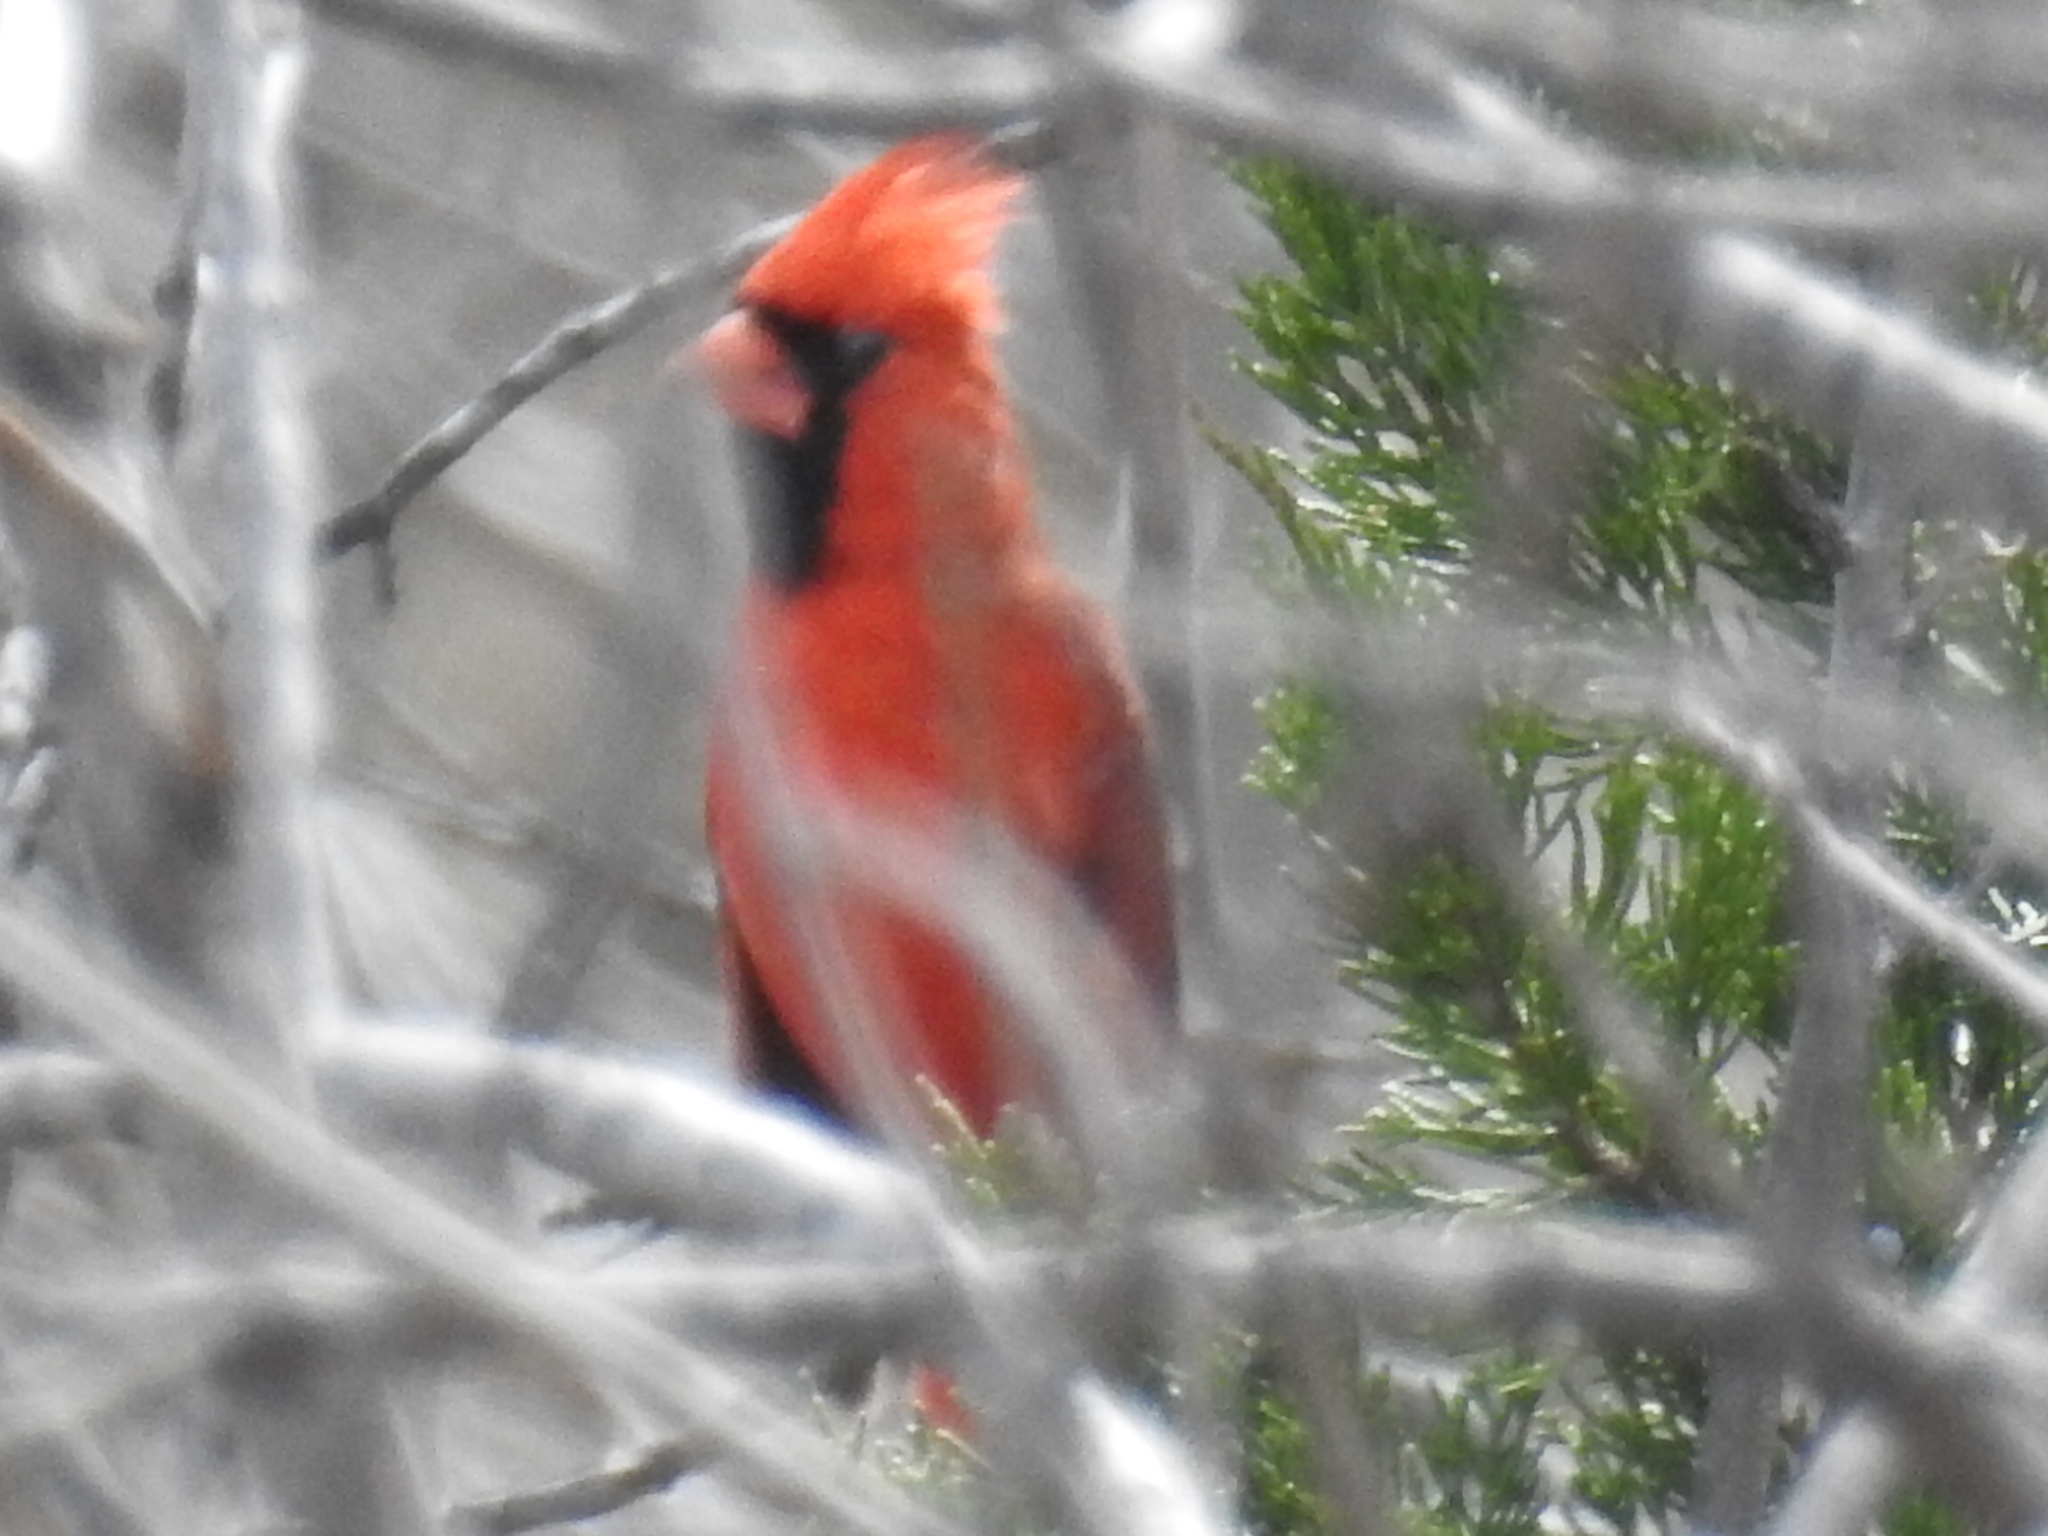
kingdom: Animalia
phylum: Chordata
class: Aves
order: Passeriformes
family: Cardinalidae
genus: Cardinalis
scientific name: Cardinalis cardinalis
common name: Northern cardinal
